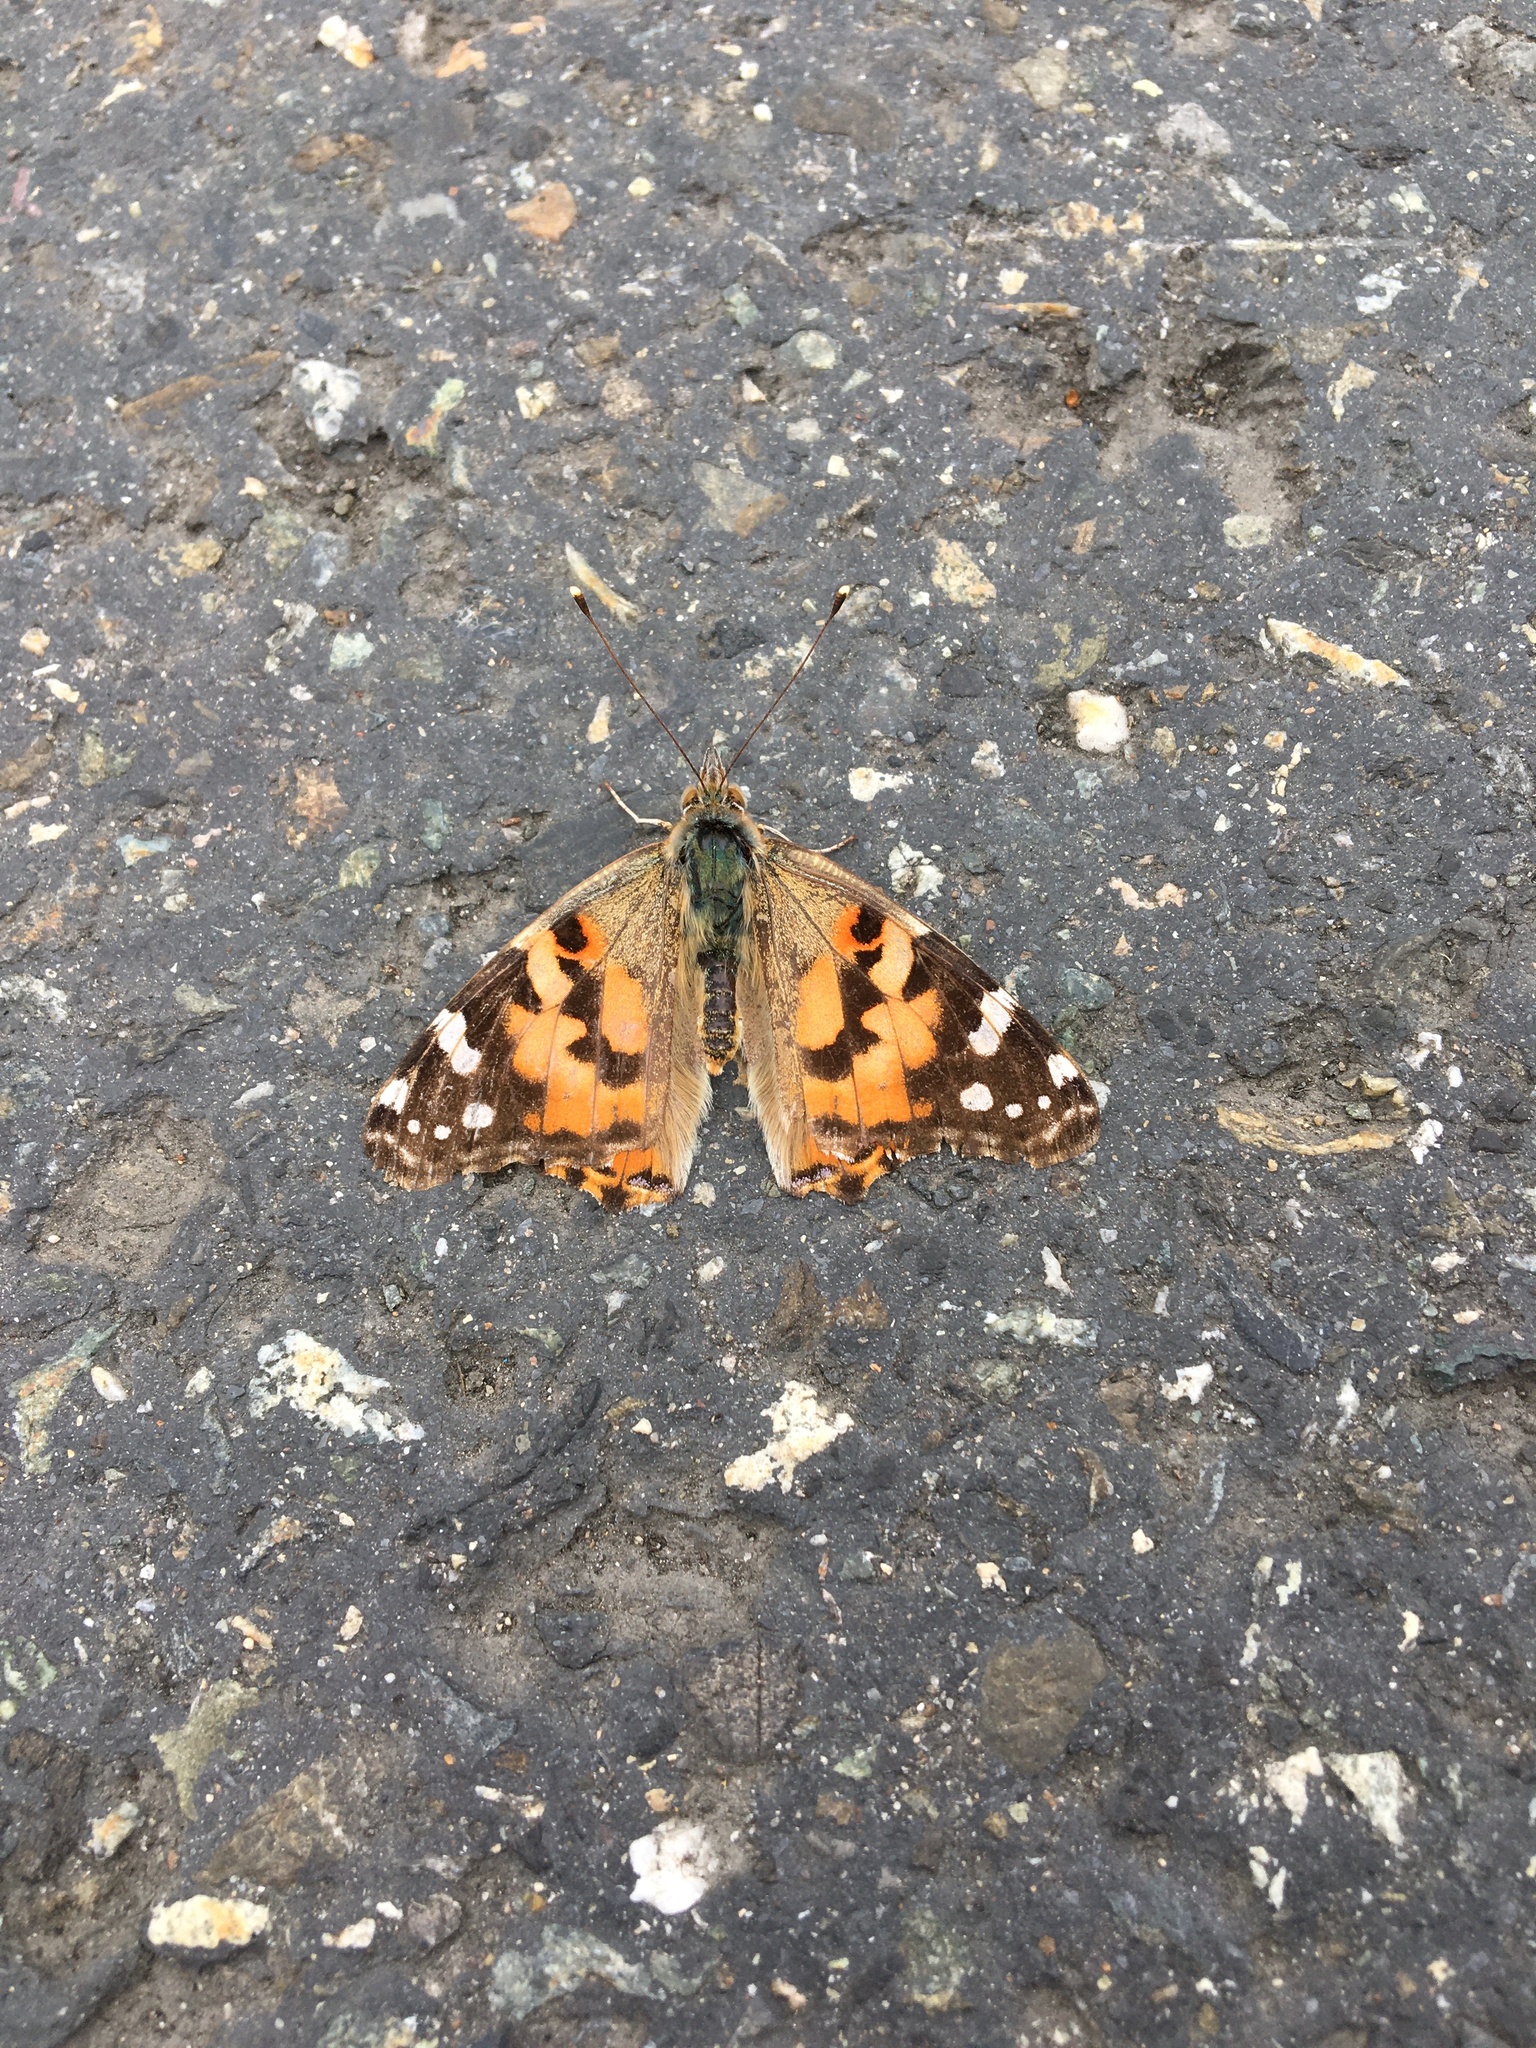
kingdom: Animalia
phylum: Arthropoda
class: Insecta
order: Lepidoptera
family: Nymphalidae
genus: Vanessa
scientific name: Vanessa cardui
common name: Painted lady
